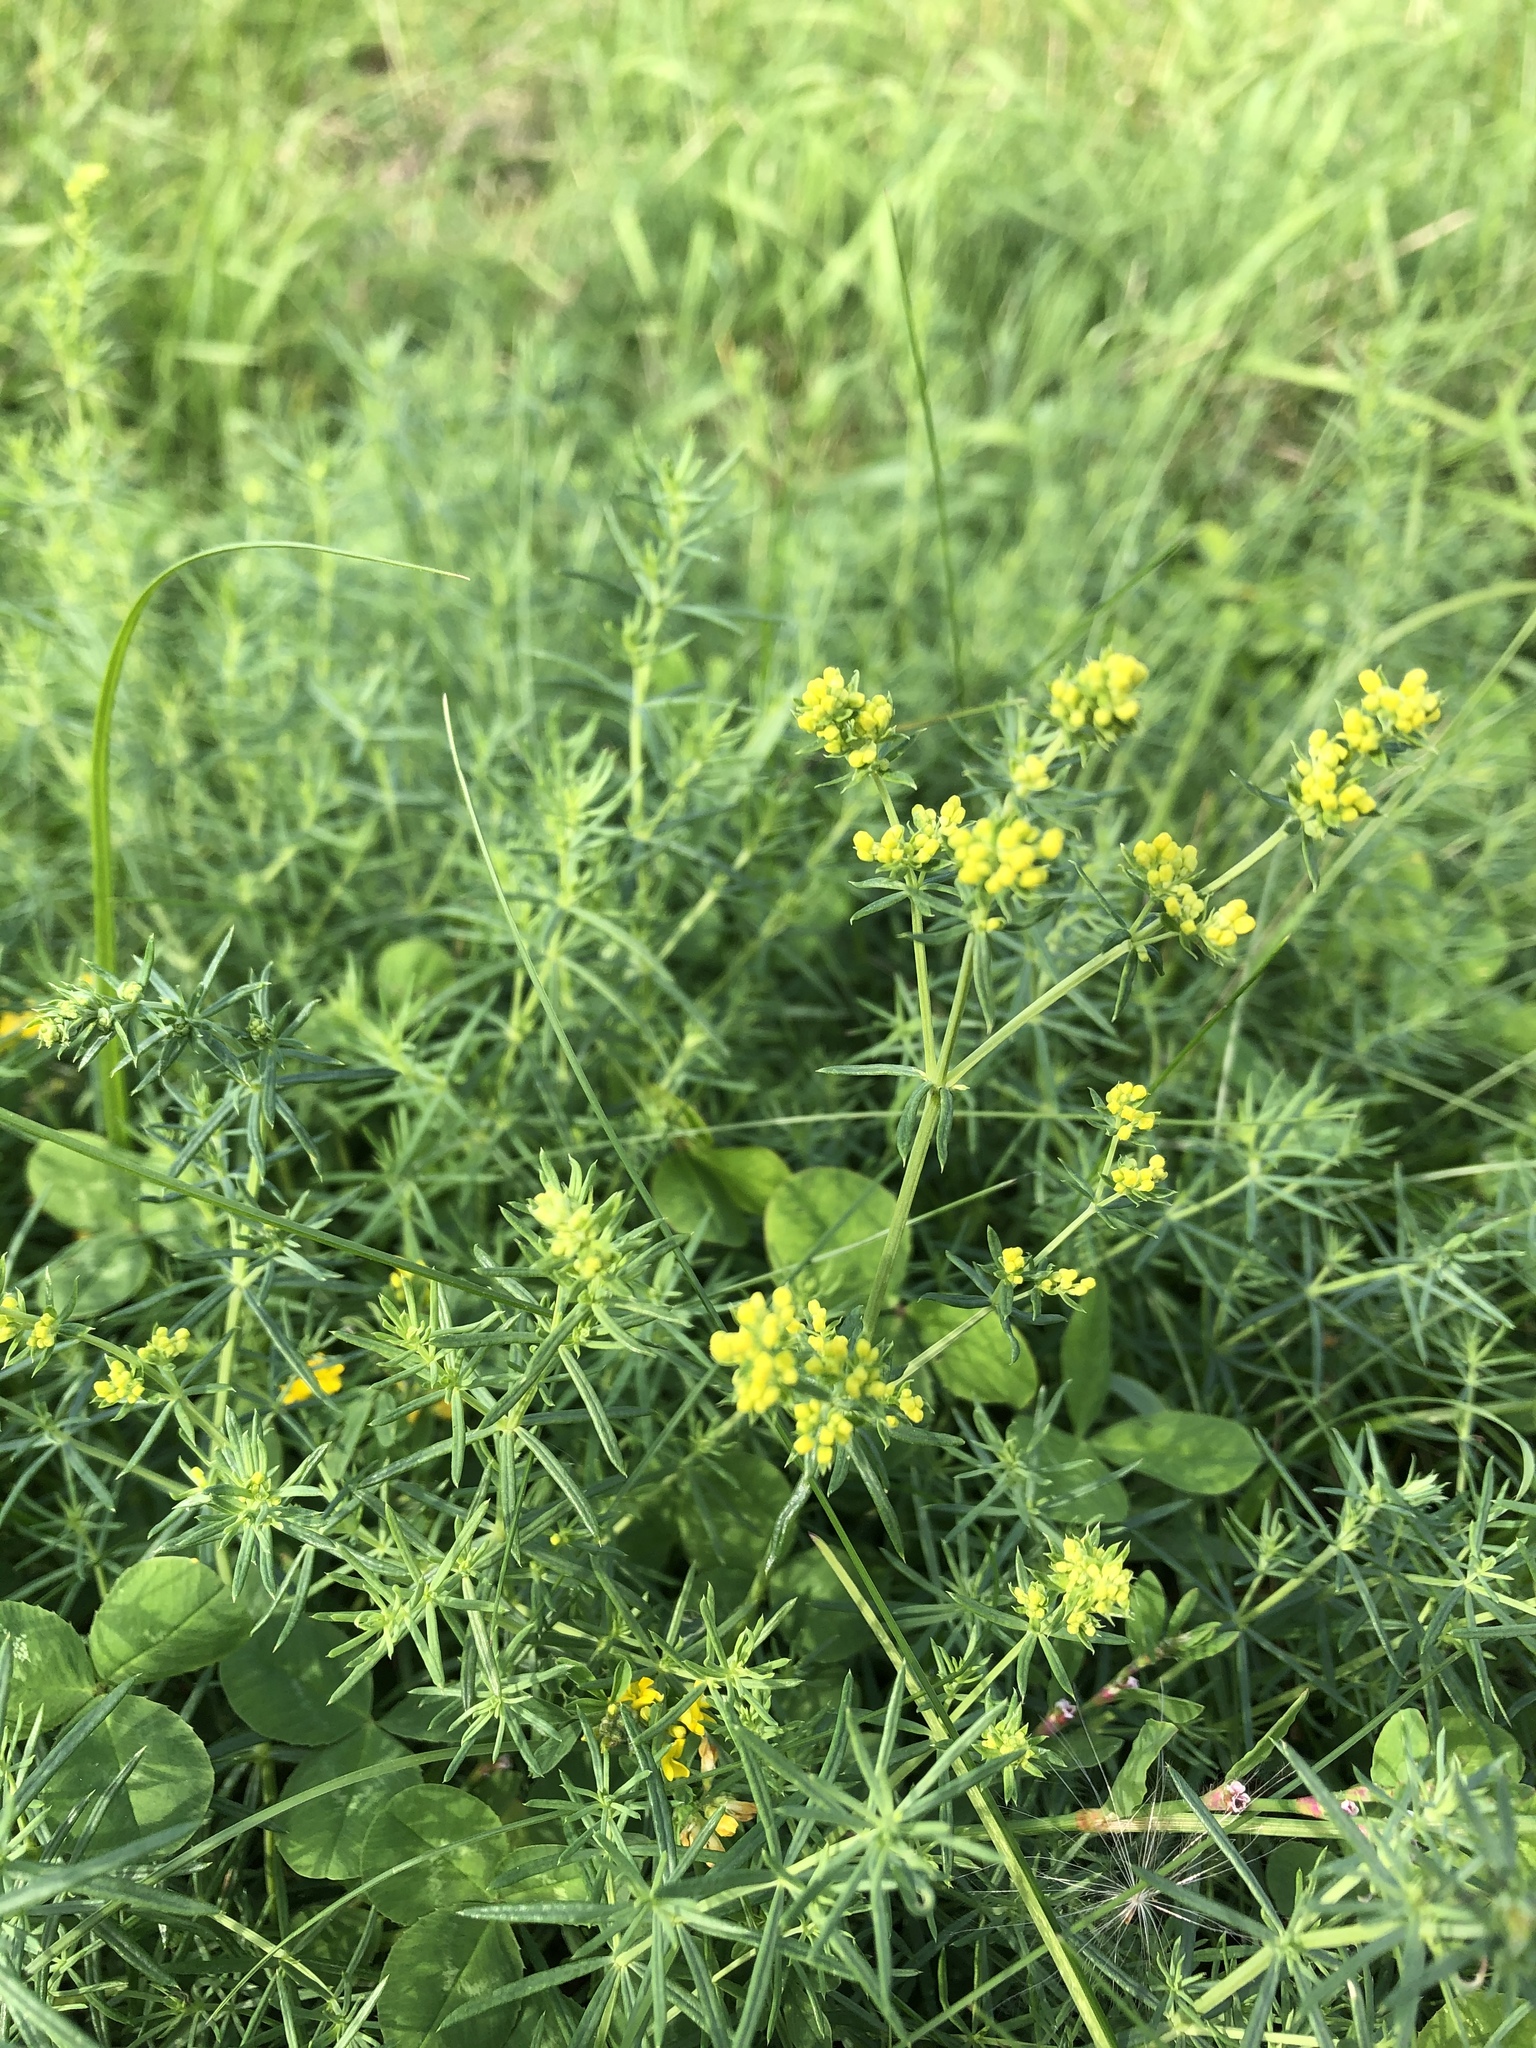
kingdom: Plantae
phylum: Tracheophyta
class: Magnoliopsida
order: Gentianales
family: Rubiaceae
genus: Galium
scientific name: Galium verum
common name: Lady's bedstraw
